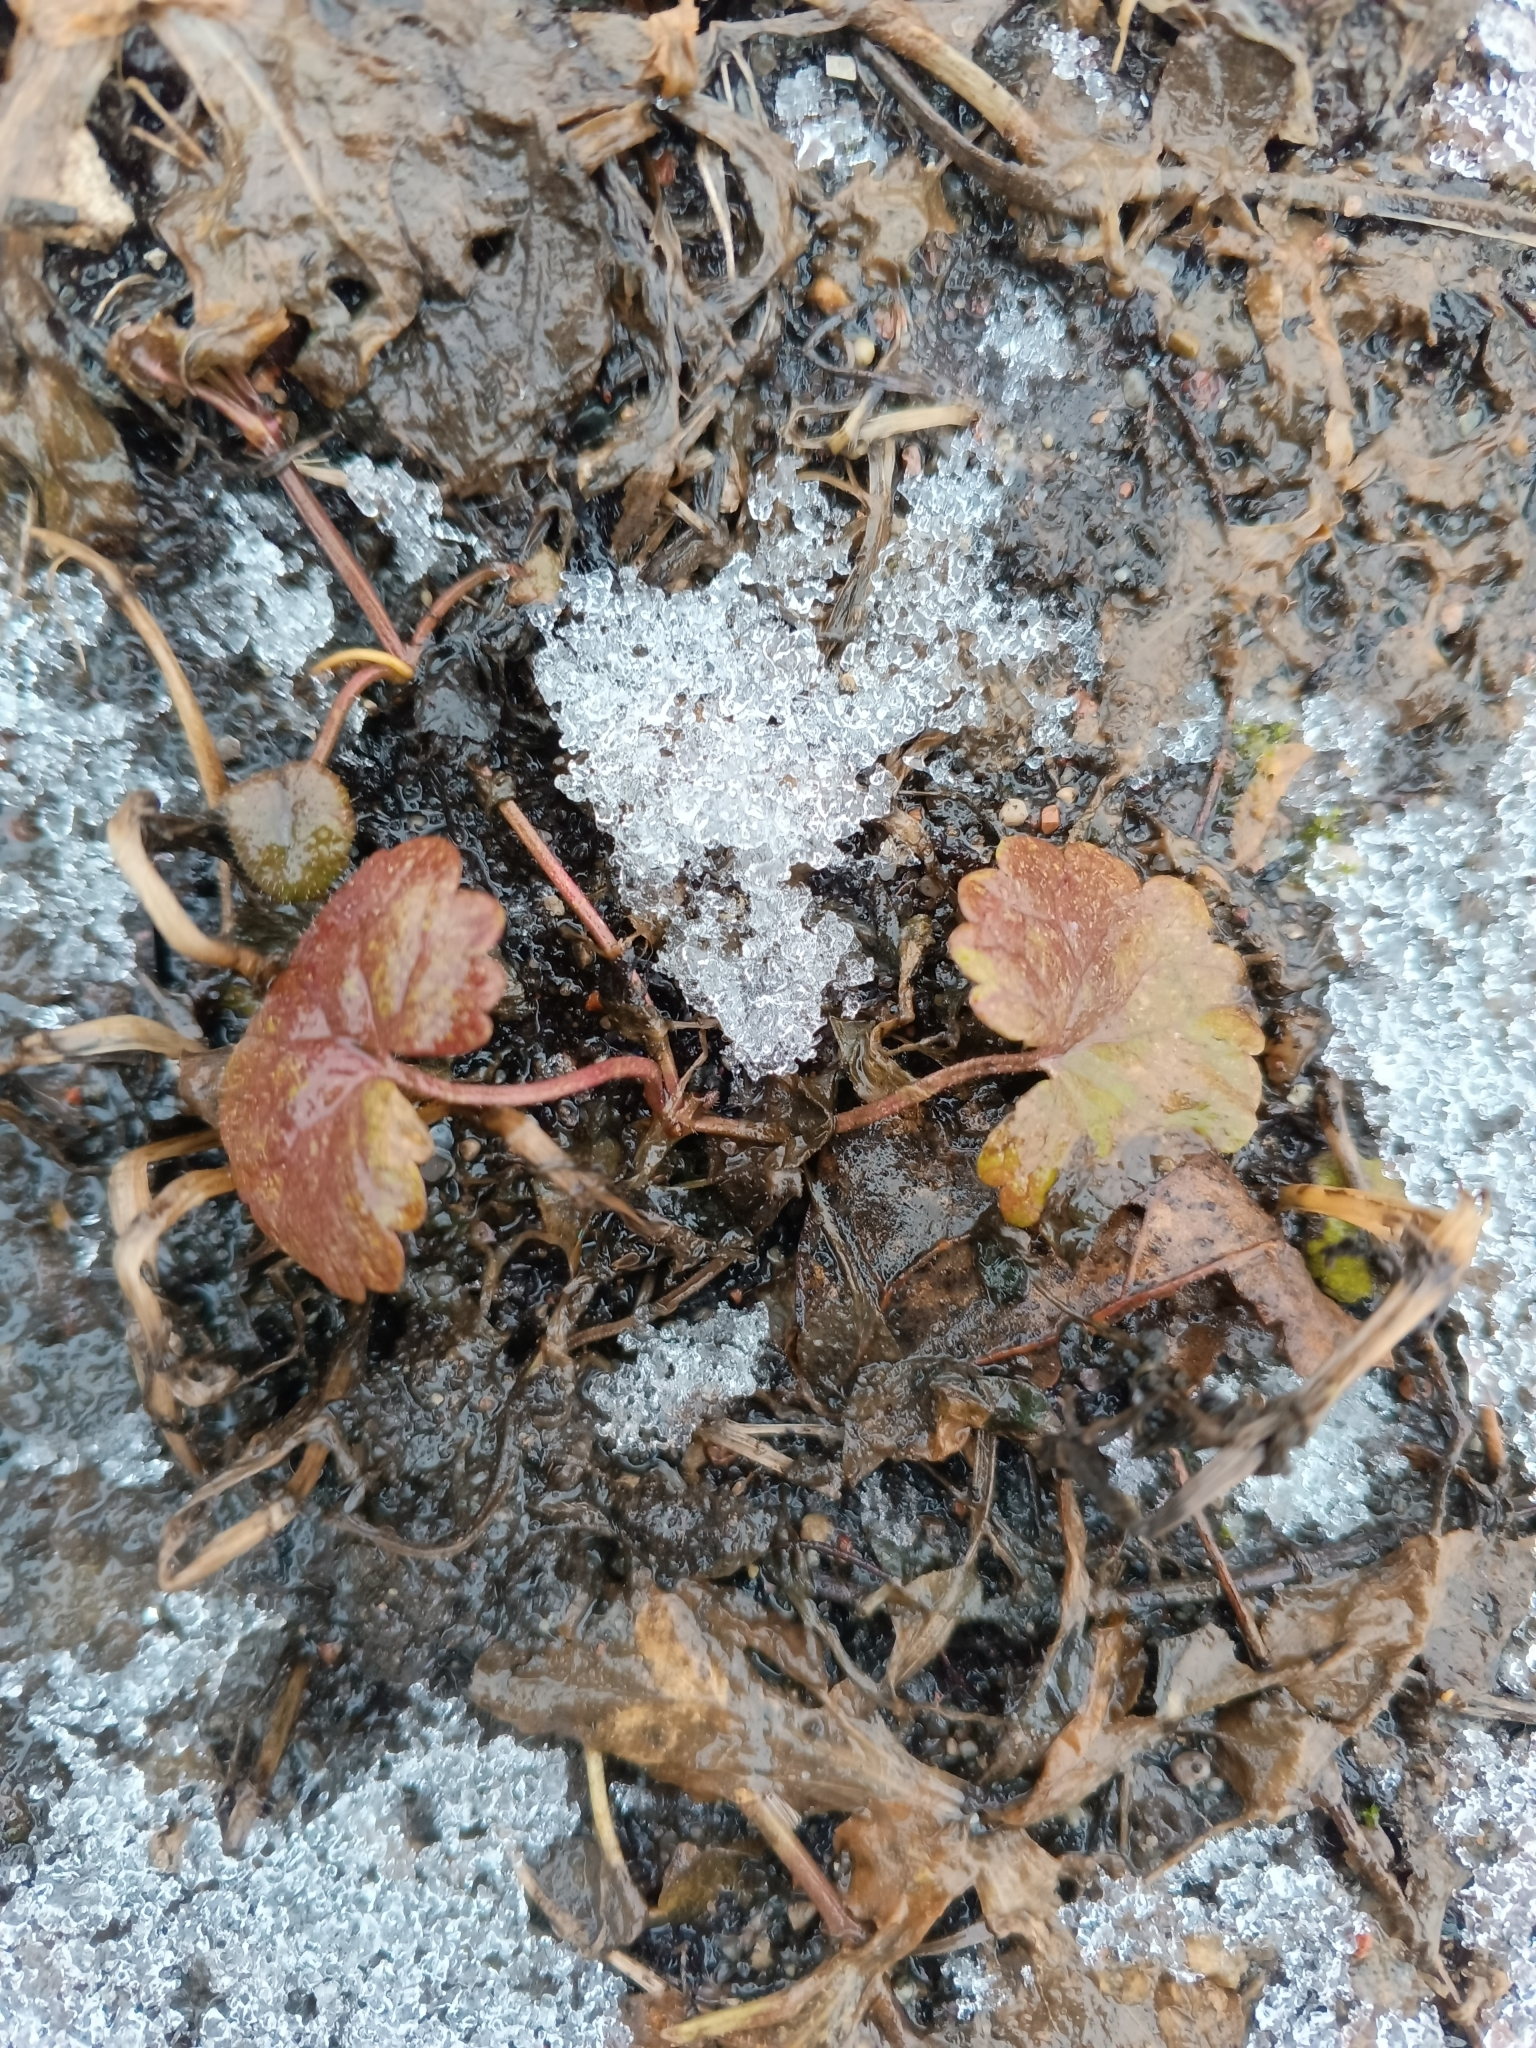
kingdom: Plantae
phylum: Tracheophyta
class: Magnoliopsida
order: Lamiales
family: Lamiaceae
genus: Glechoma
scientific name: Glechoma hederacea
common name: Ground ivy
